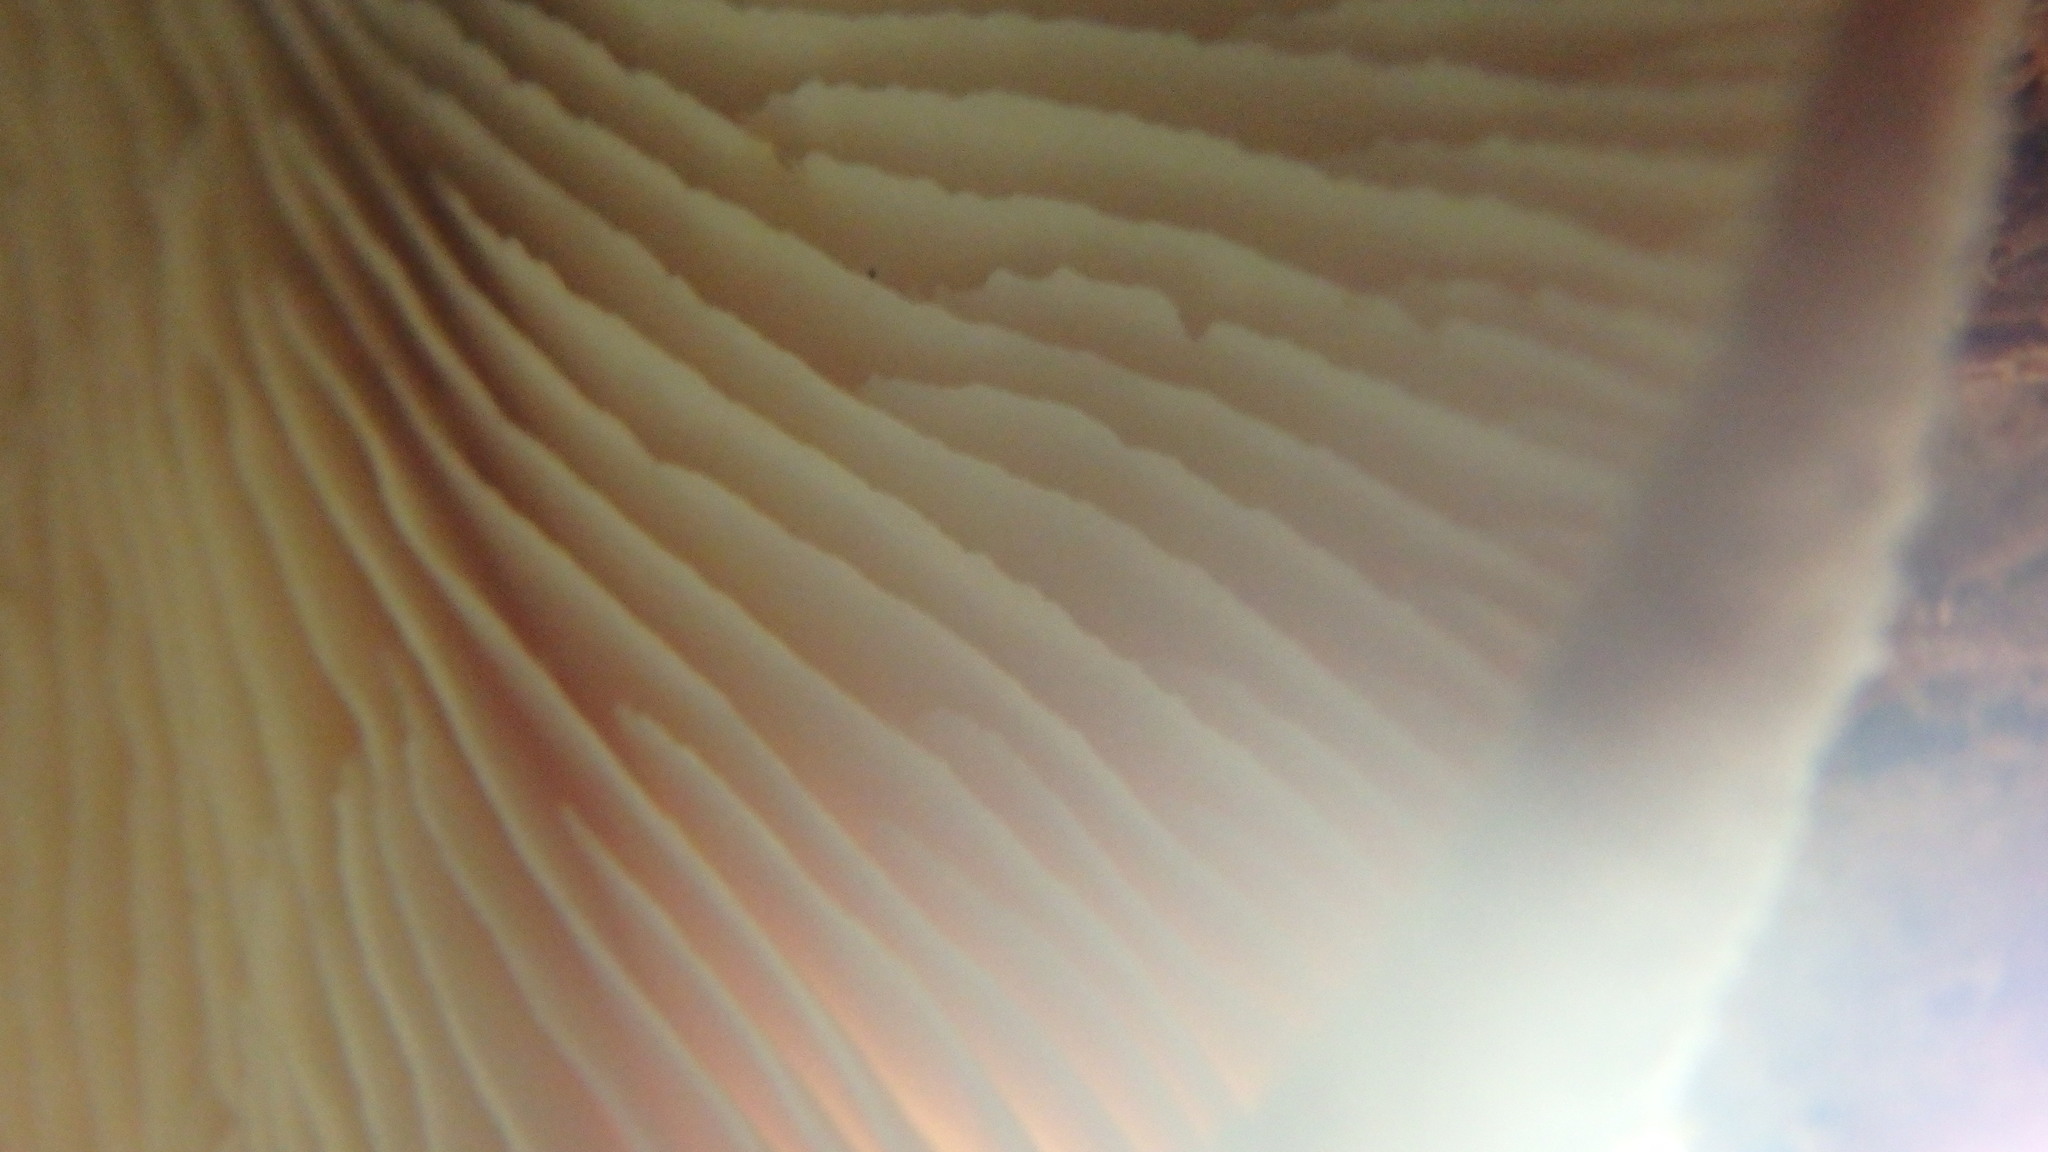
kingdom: Fungi
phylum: Basidiomycota
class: Agaricomycetes
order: Russulales
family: Auriscalpiaceae
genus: Lentinellus
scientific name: Lentinellus ursinus
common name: Bear lentinus
